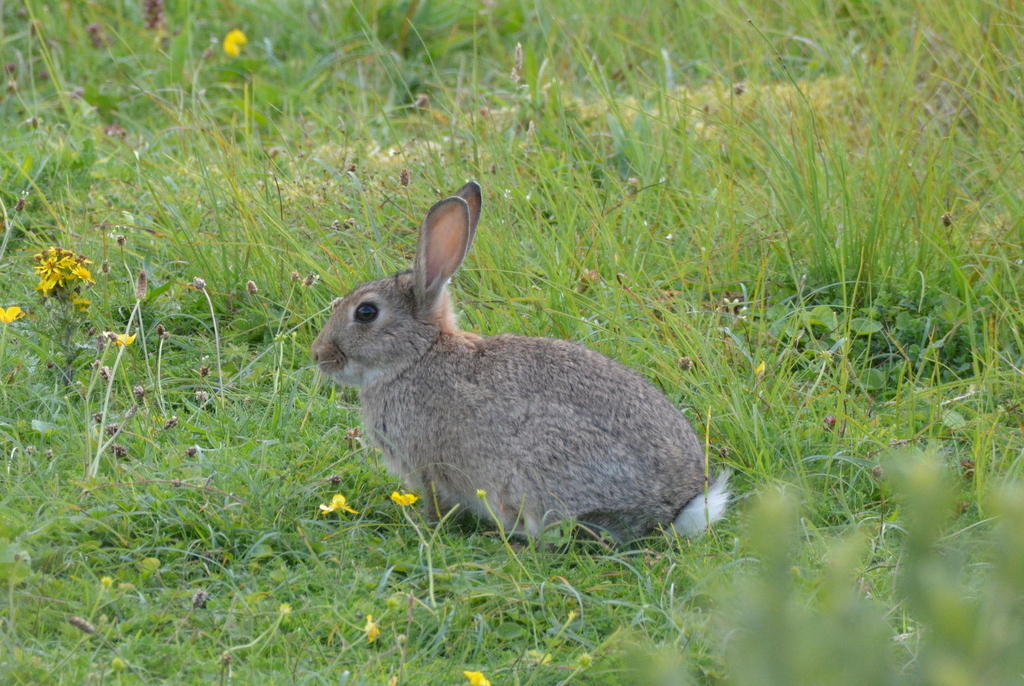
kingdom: Animalia
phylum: Chordata
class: Mammalia
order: Lagomorpha
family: Leporidae
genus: Oryctolagus
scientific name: Oryctolagus cuniculus
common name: European rabbit
